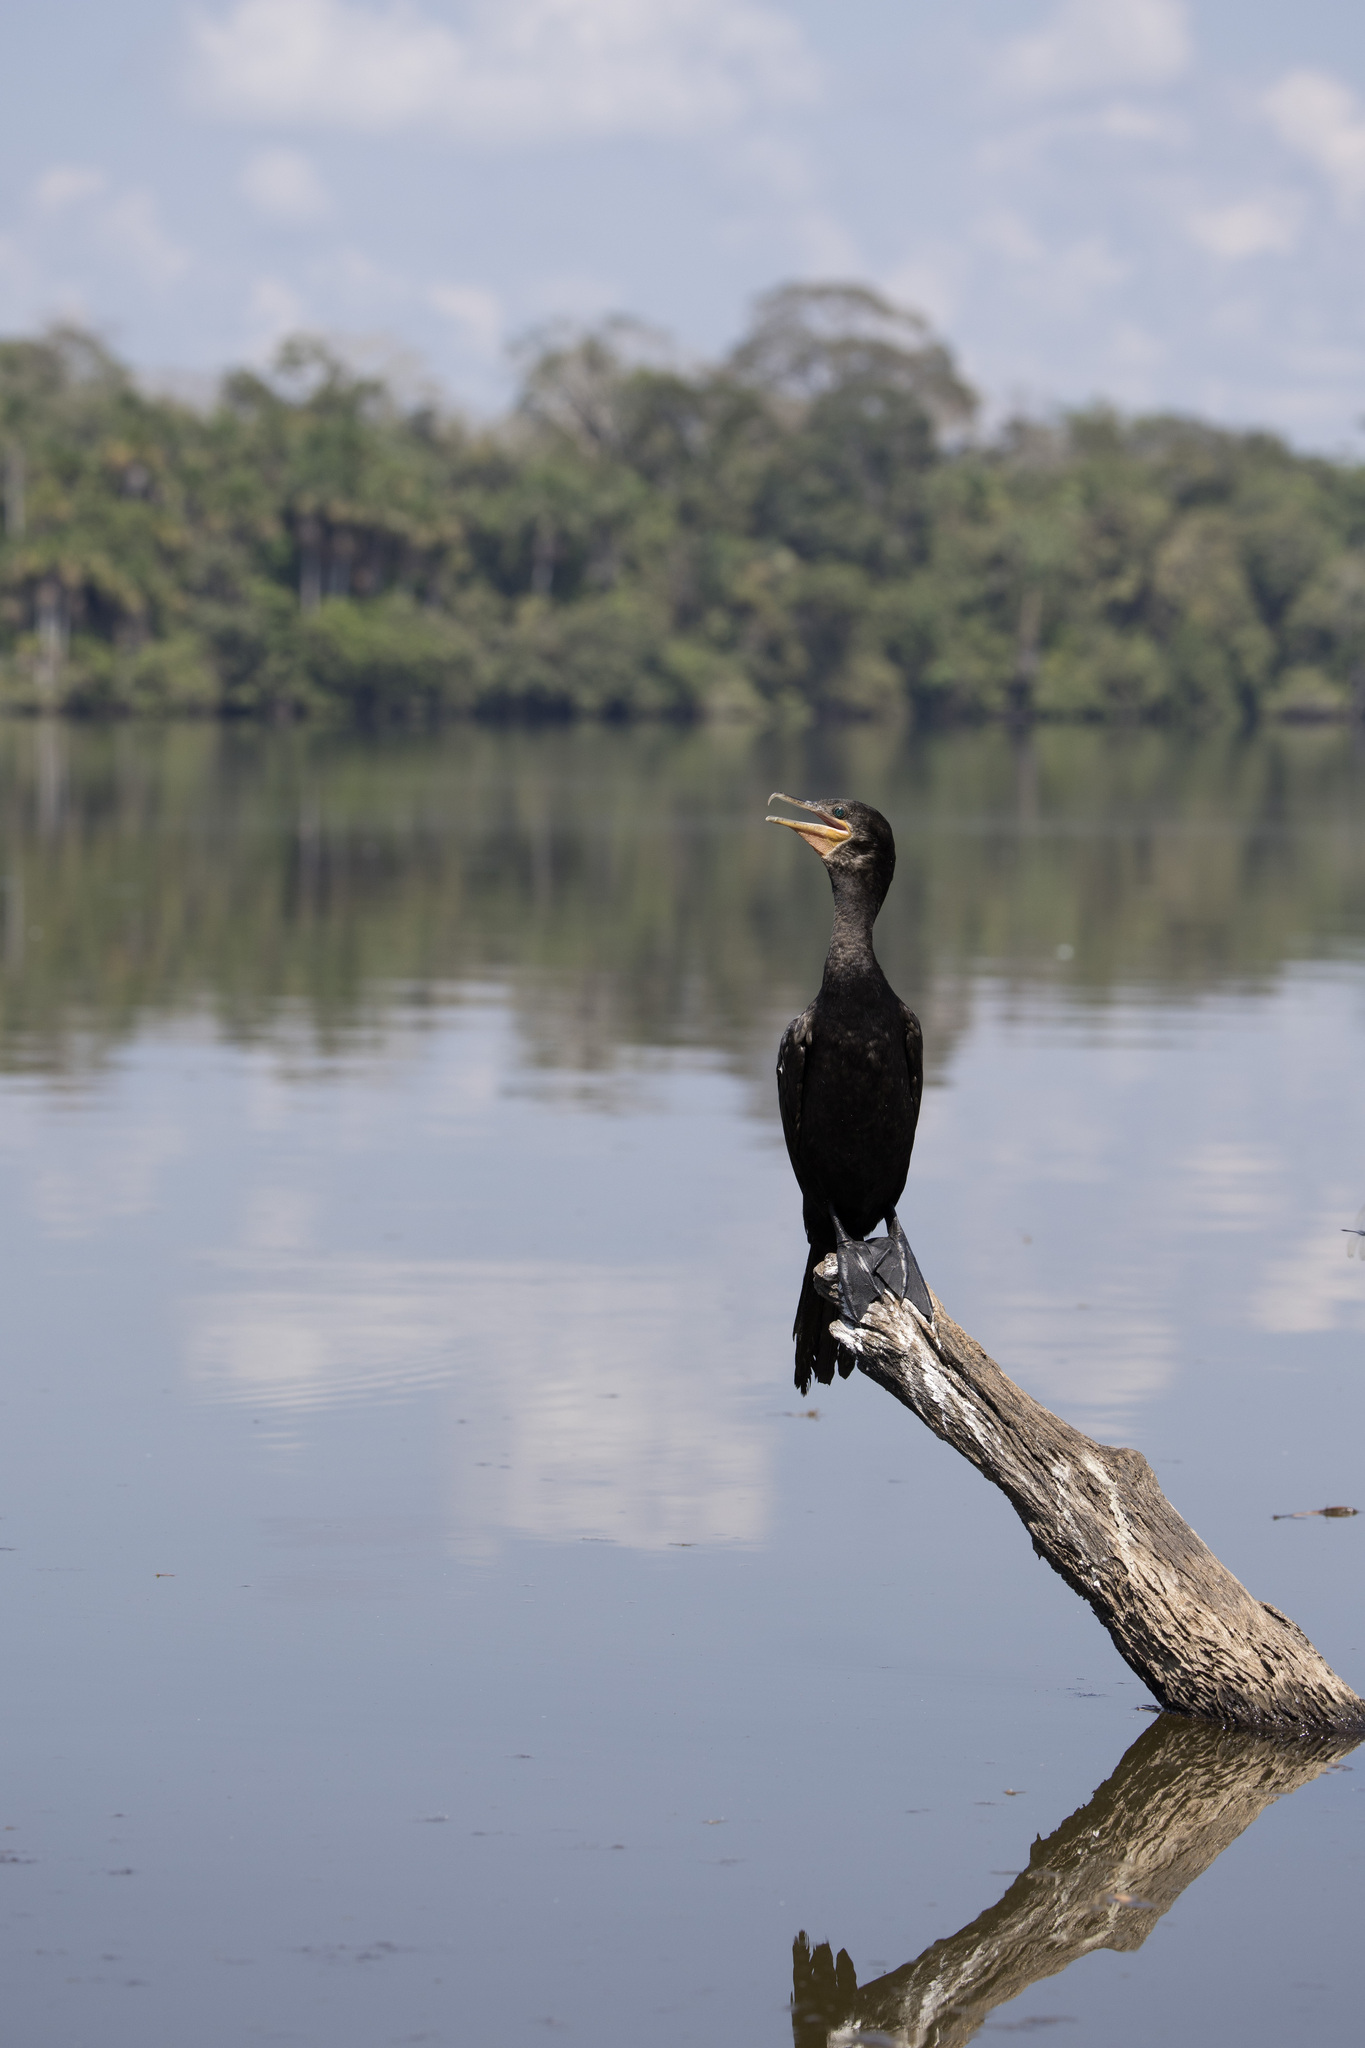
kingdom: Animalia
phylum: Chordata
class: Aves
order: Suliformes
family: Phalacrocoracidae
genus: Phalacrocorax
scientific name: Phalacrocorax brasilianus
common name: Neotropic cormorant
